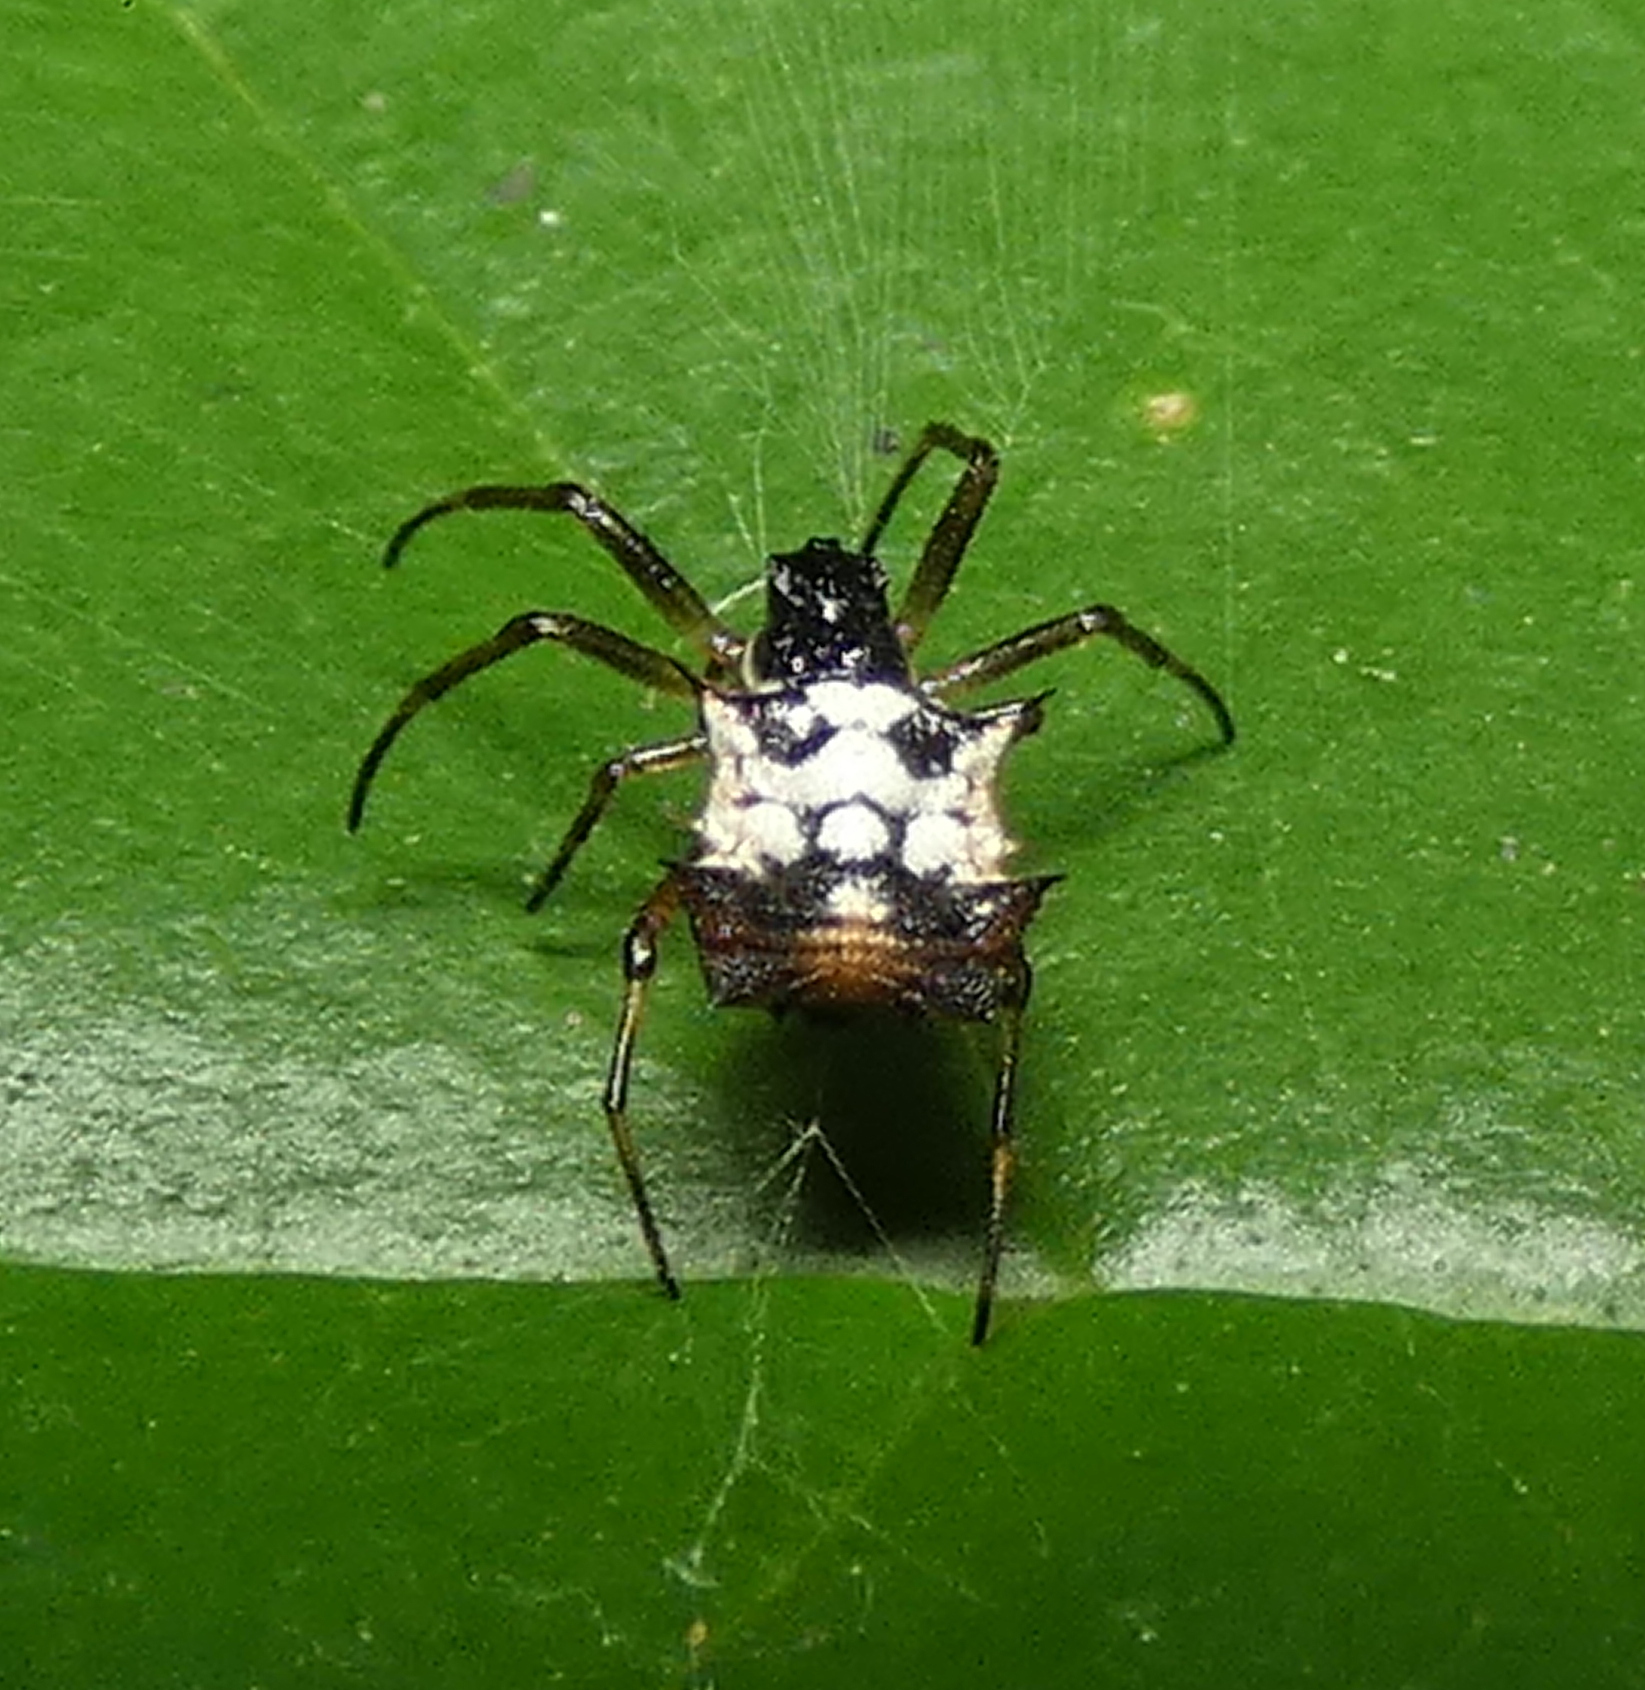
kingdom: Animalia
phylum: Arthropoda
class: Arachnida
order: Araneae
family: Araneidae
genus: Micrathena
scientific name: Micrathena picta
